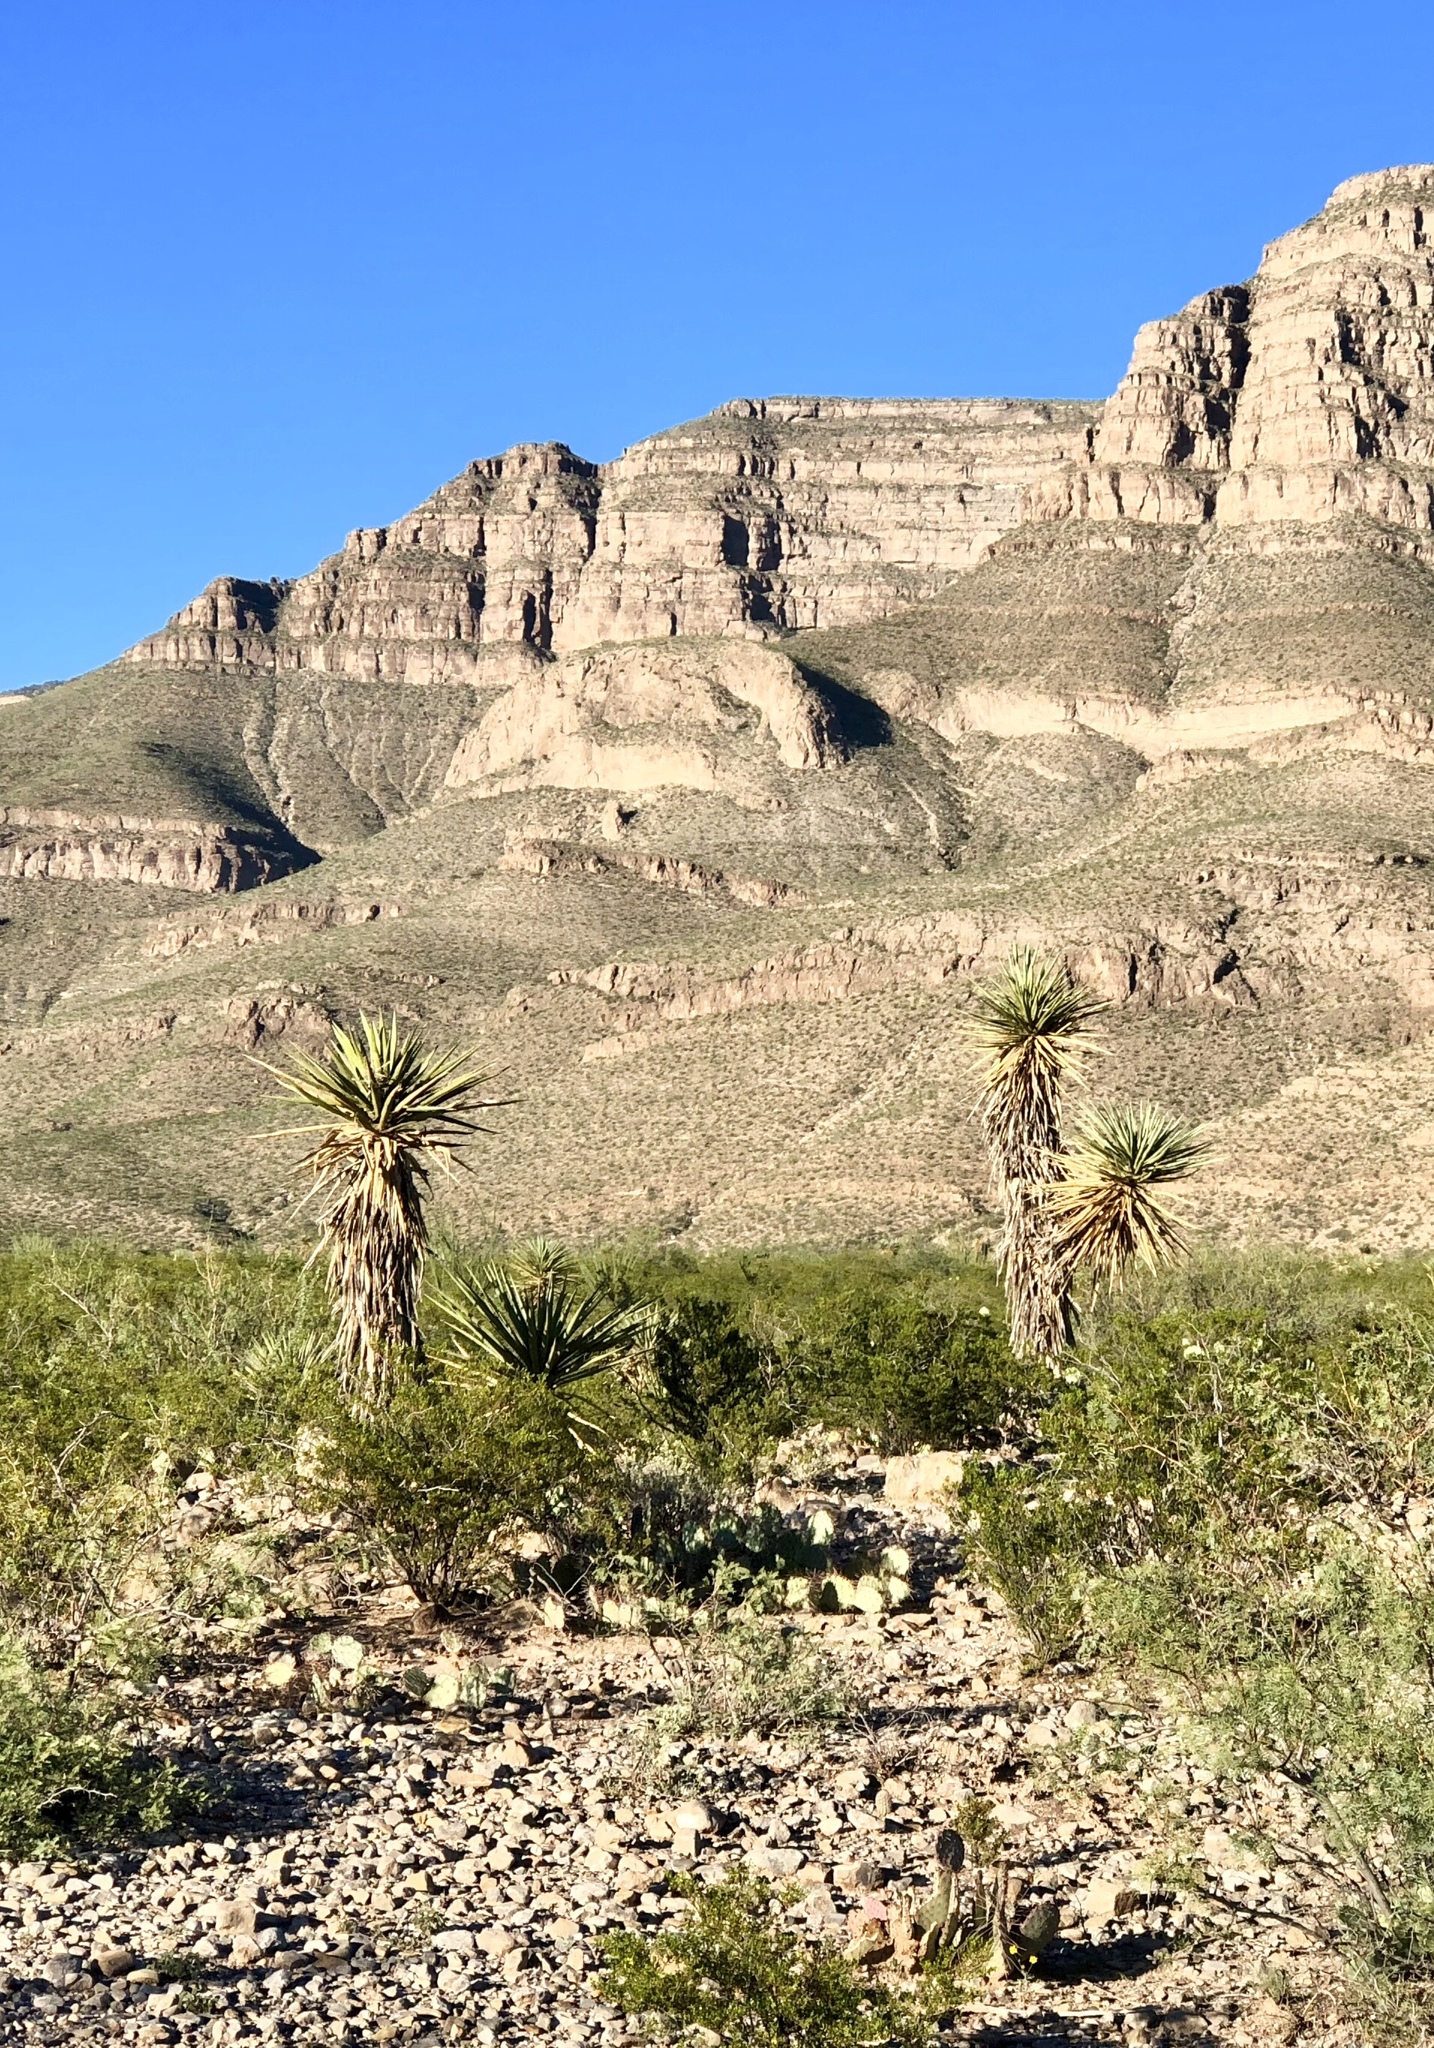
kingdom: Plantae
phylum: Tracheophyta
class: Liliopsida
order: Asparagales
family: Asparagaceae
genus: Yucca
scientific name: Yucca baccata
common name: Banana yucca
